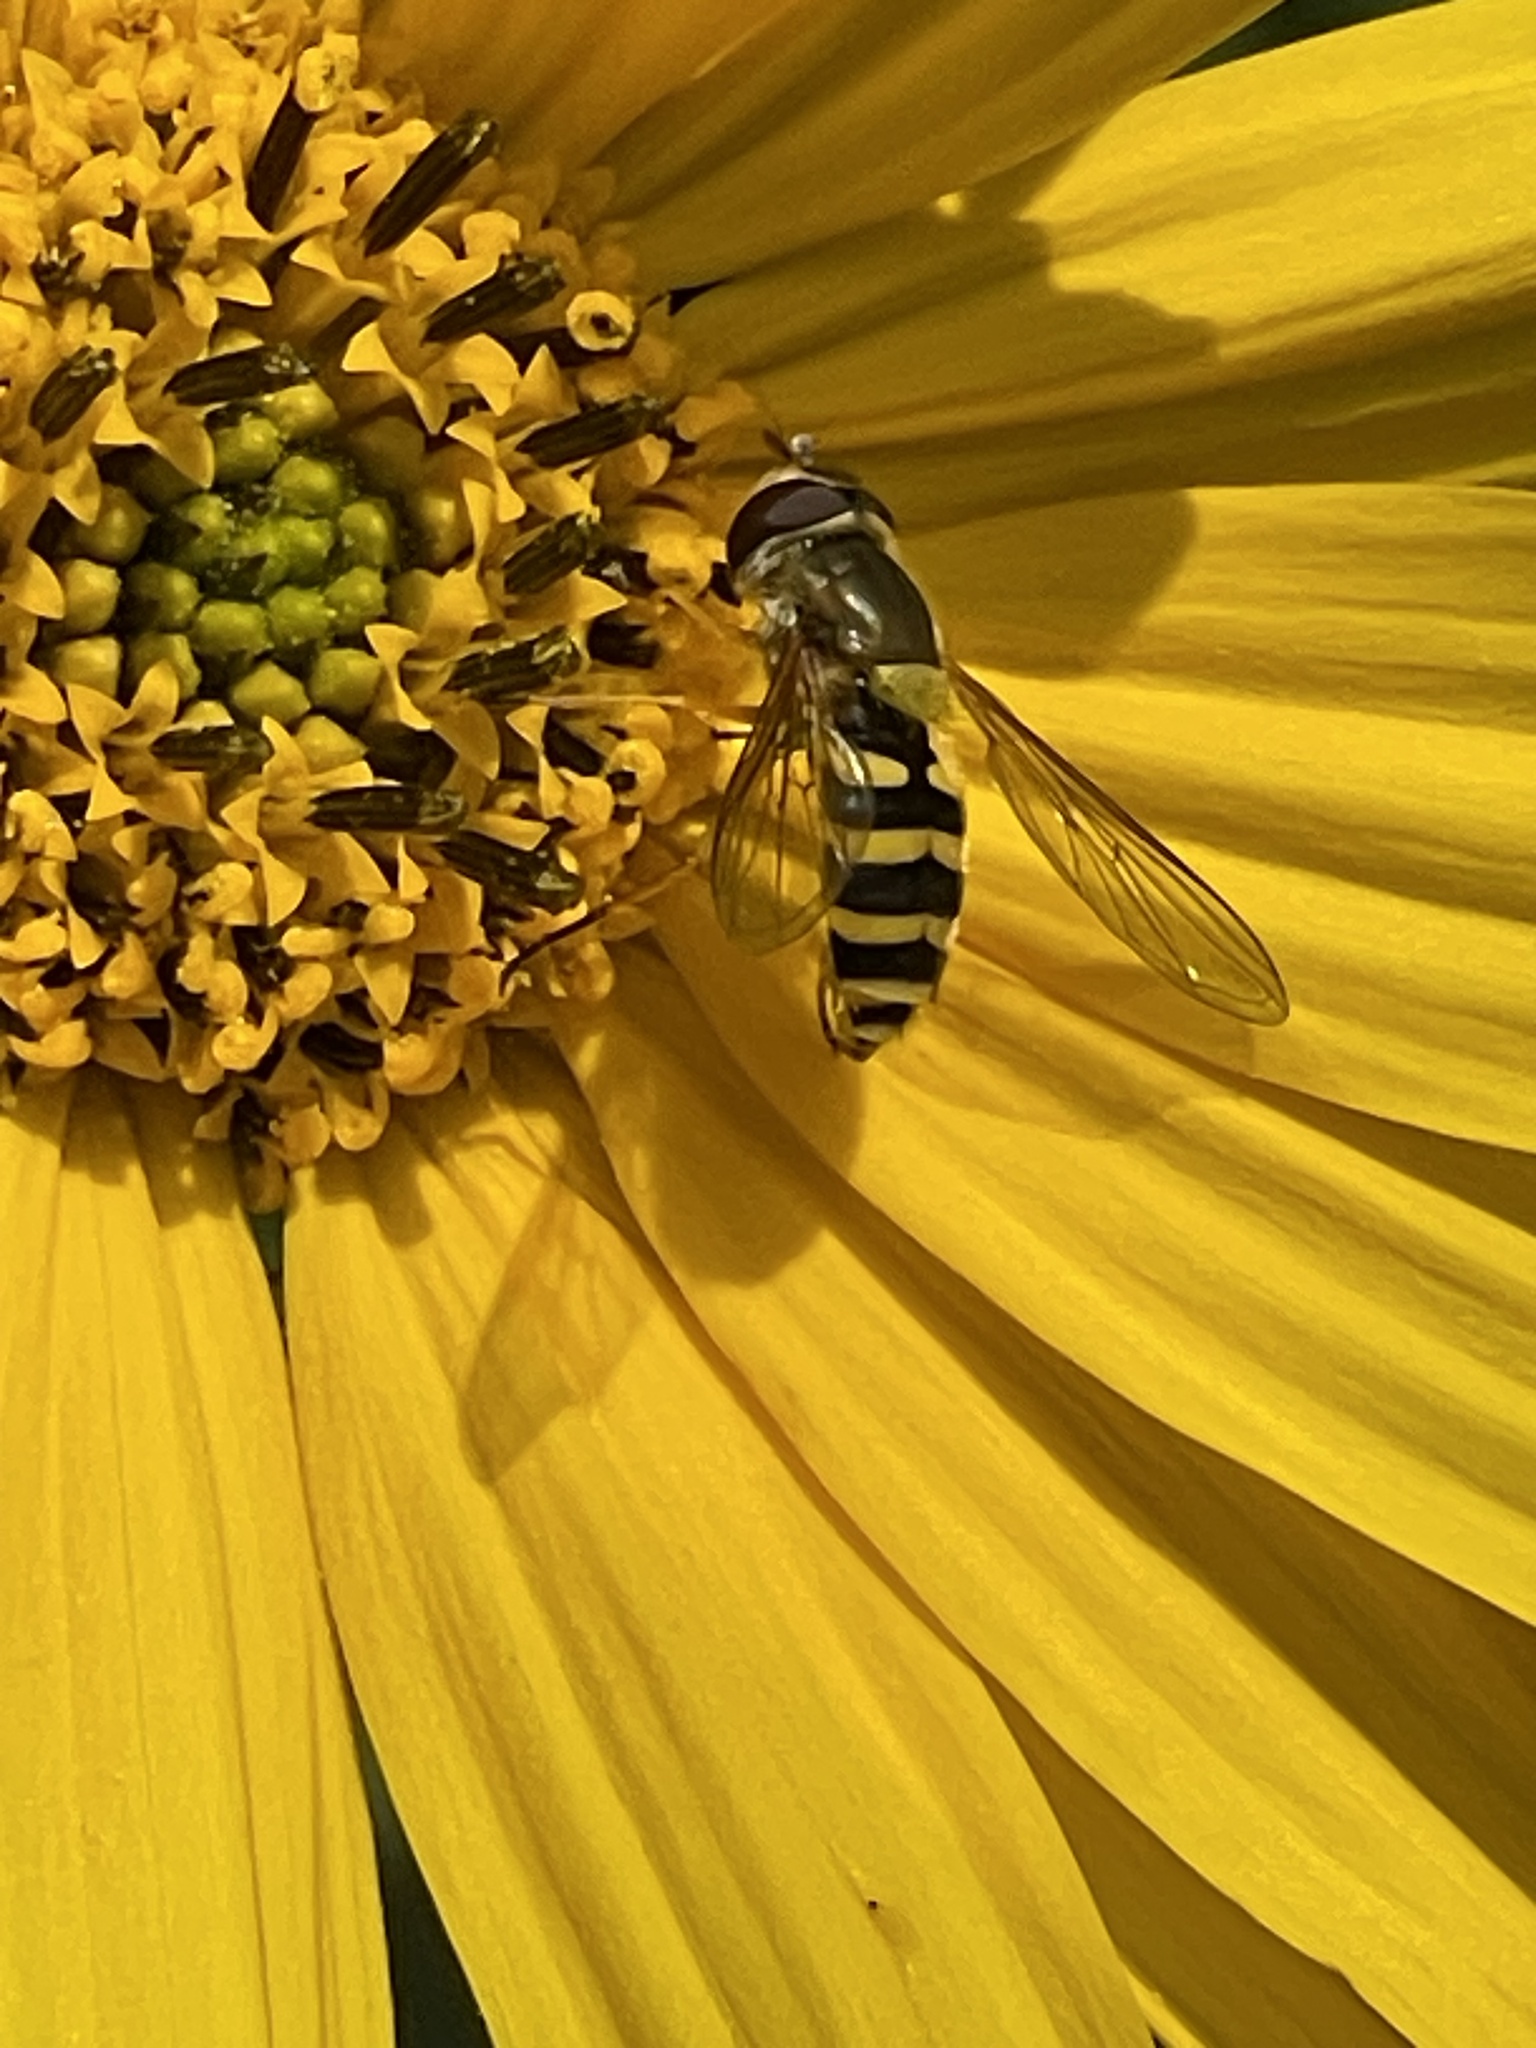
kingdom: Animalia
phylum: Arthropoda
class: Insecta
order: Diptera
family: Syrphidae
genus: Syrphus
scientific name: Syrphus
